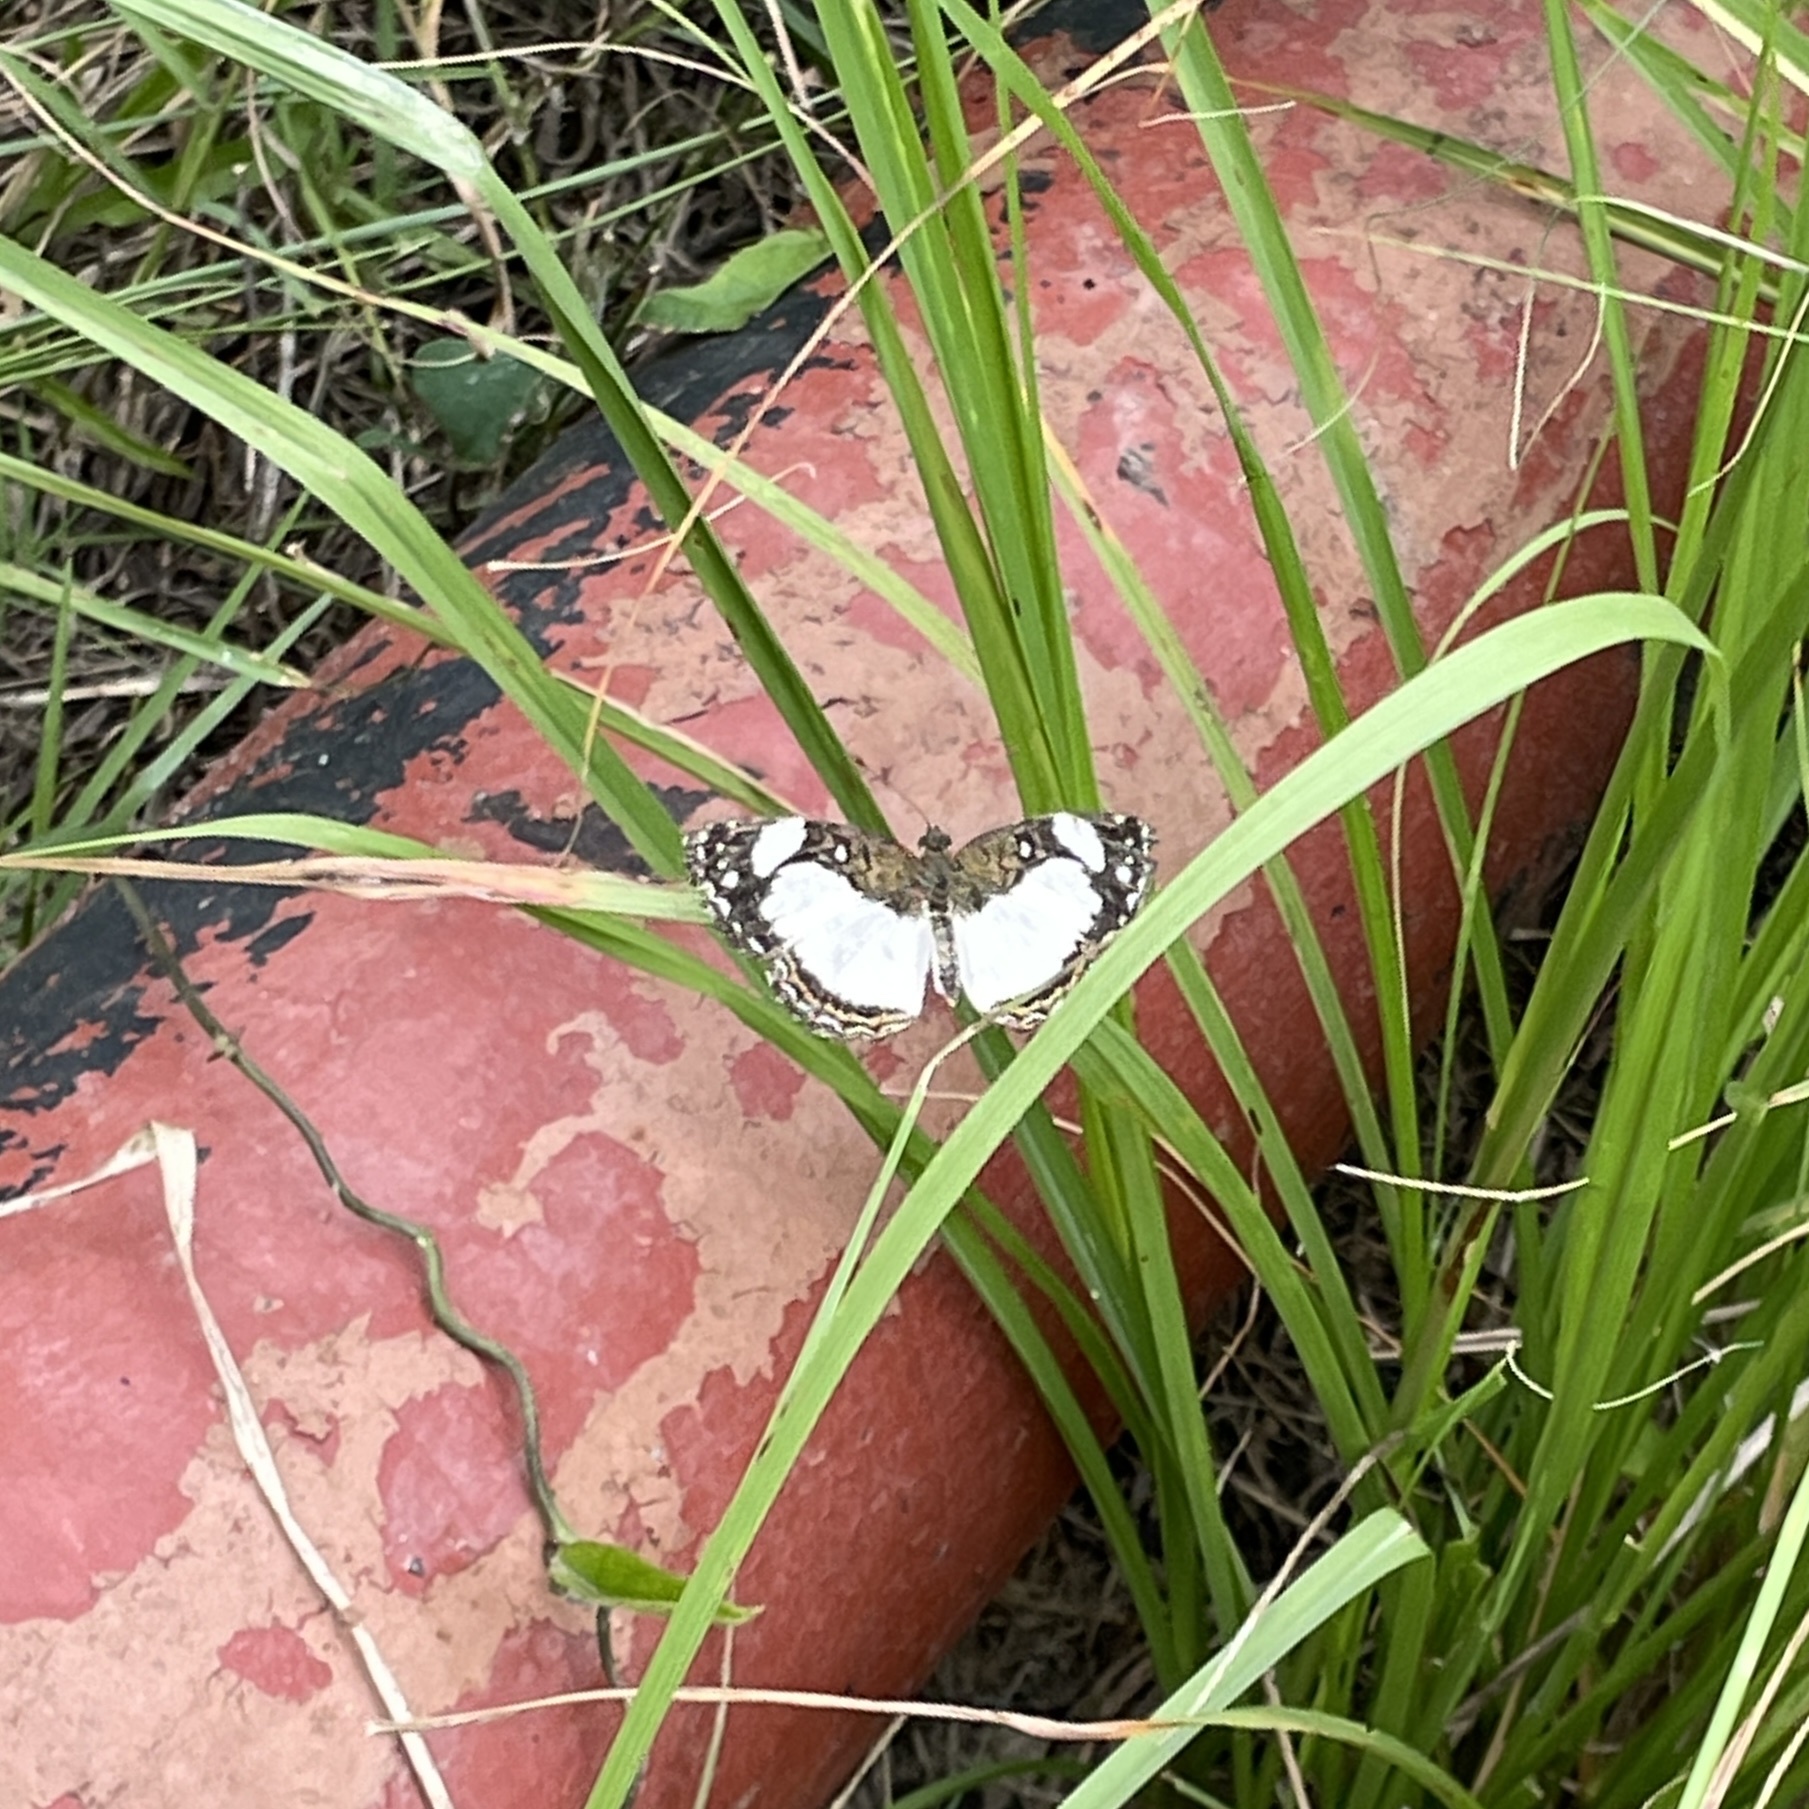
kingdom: Animalia
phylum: Arthropoda
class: Insecta
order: Lepidoptera
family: Nymphalidae
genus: Janatella
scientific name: Janatella leucodesma
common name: Whitened crescent
